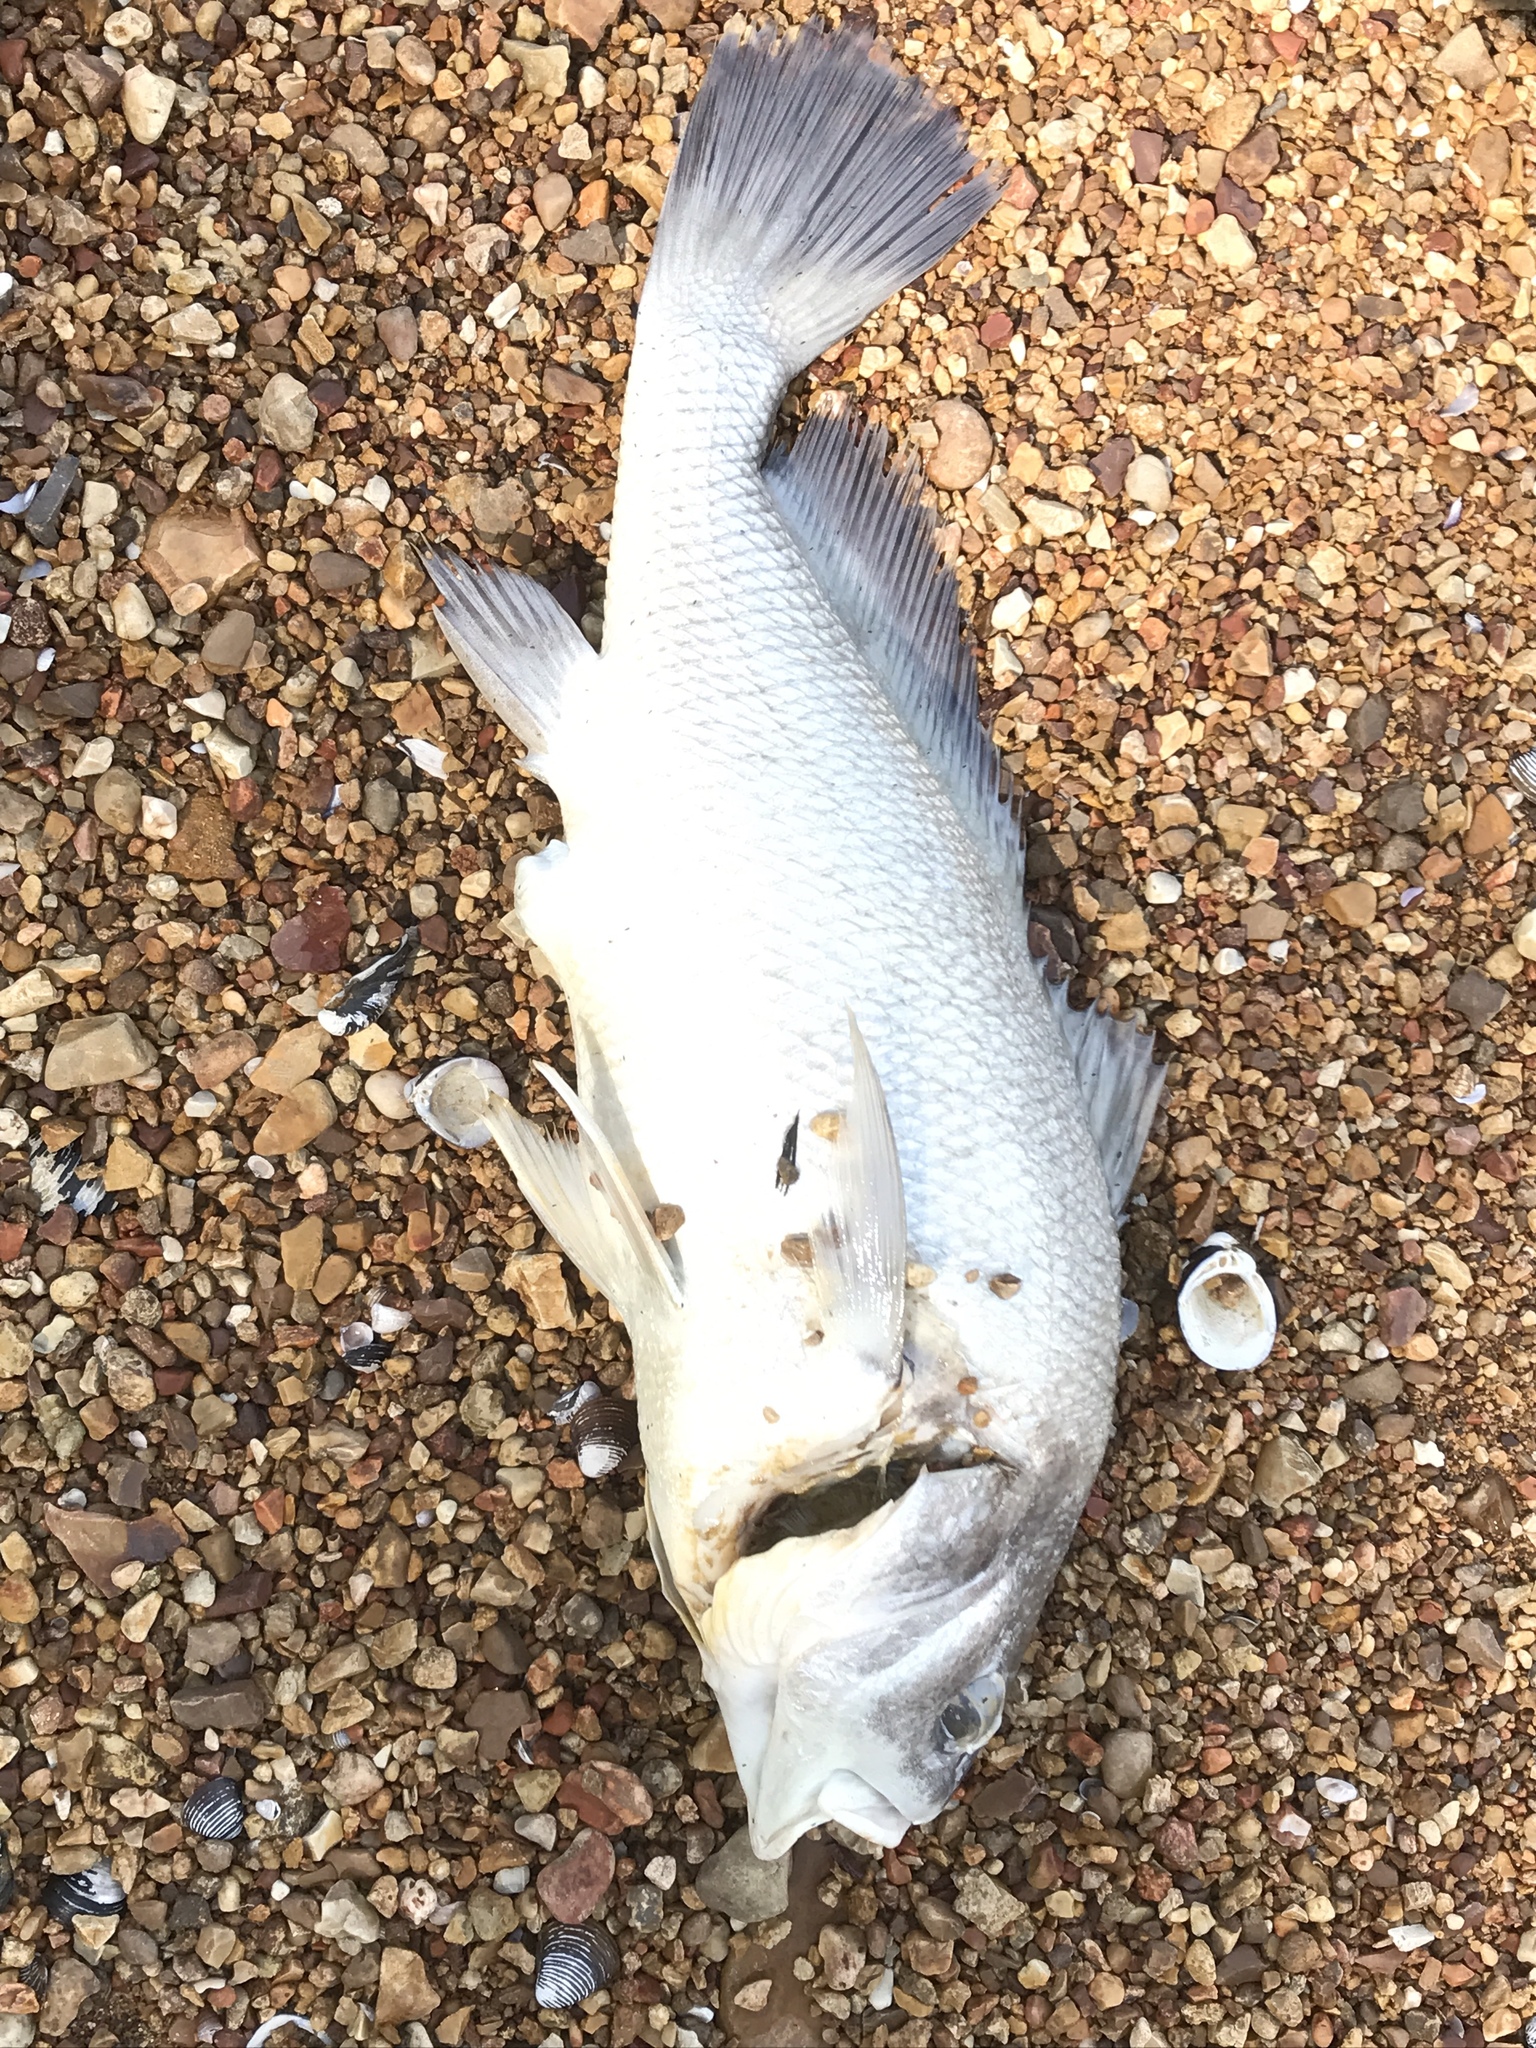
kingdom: Animalia
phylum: Chordata
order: Perciformes
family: Sciaenidae
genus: Aplodinotus
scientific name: Aplodinotus grunniens
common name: Freshwater drum
